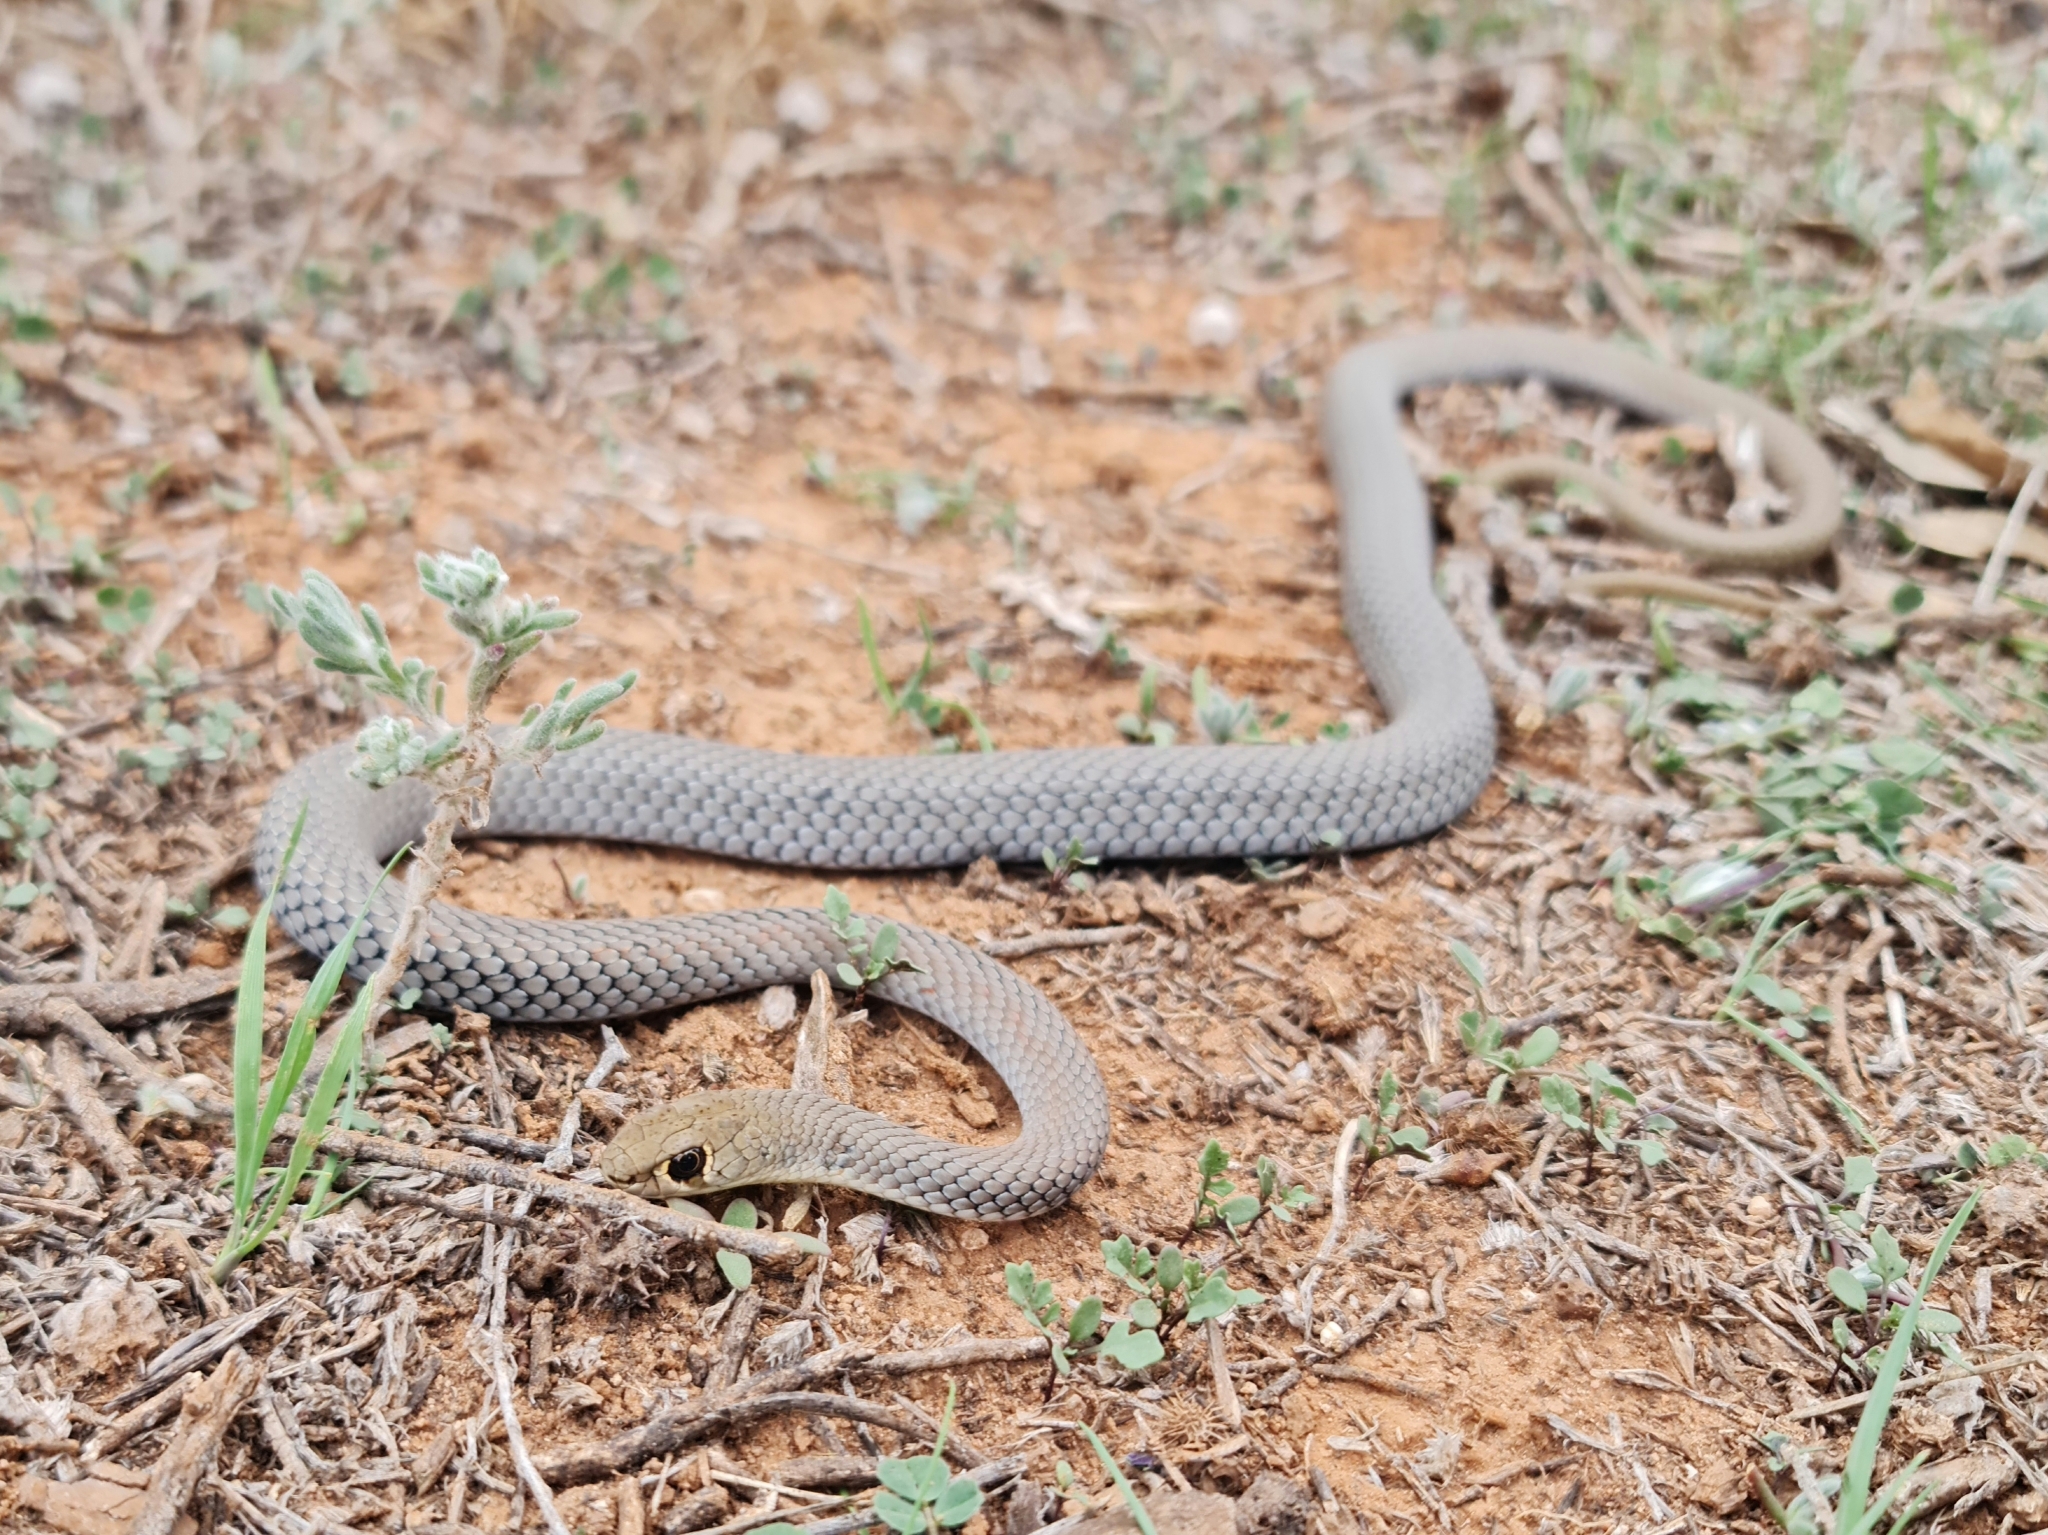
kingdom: Animalia
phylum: Chordata
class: Squamata
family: Elapidae
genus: Demansia
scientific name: Demansia psammophis
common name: Yellow-faced whip snake
